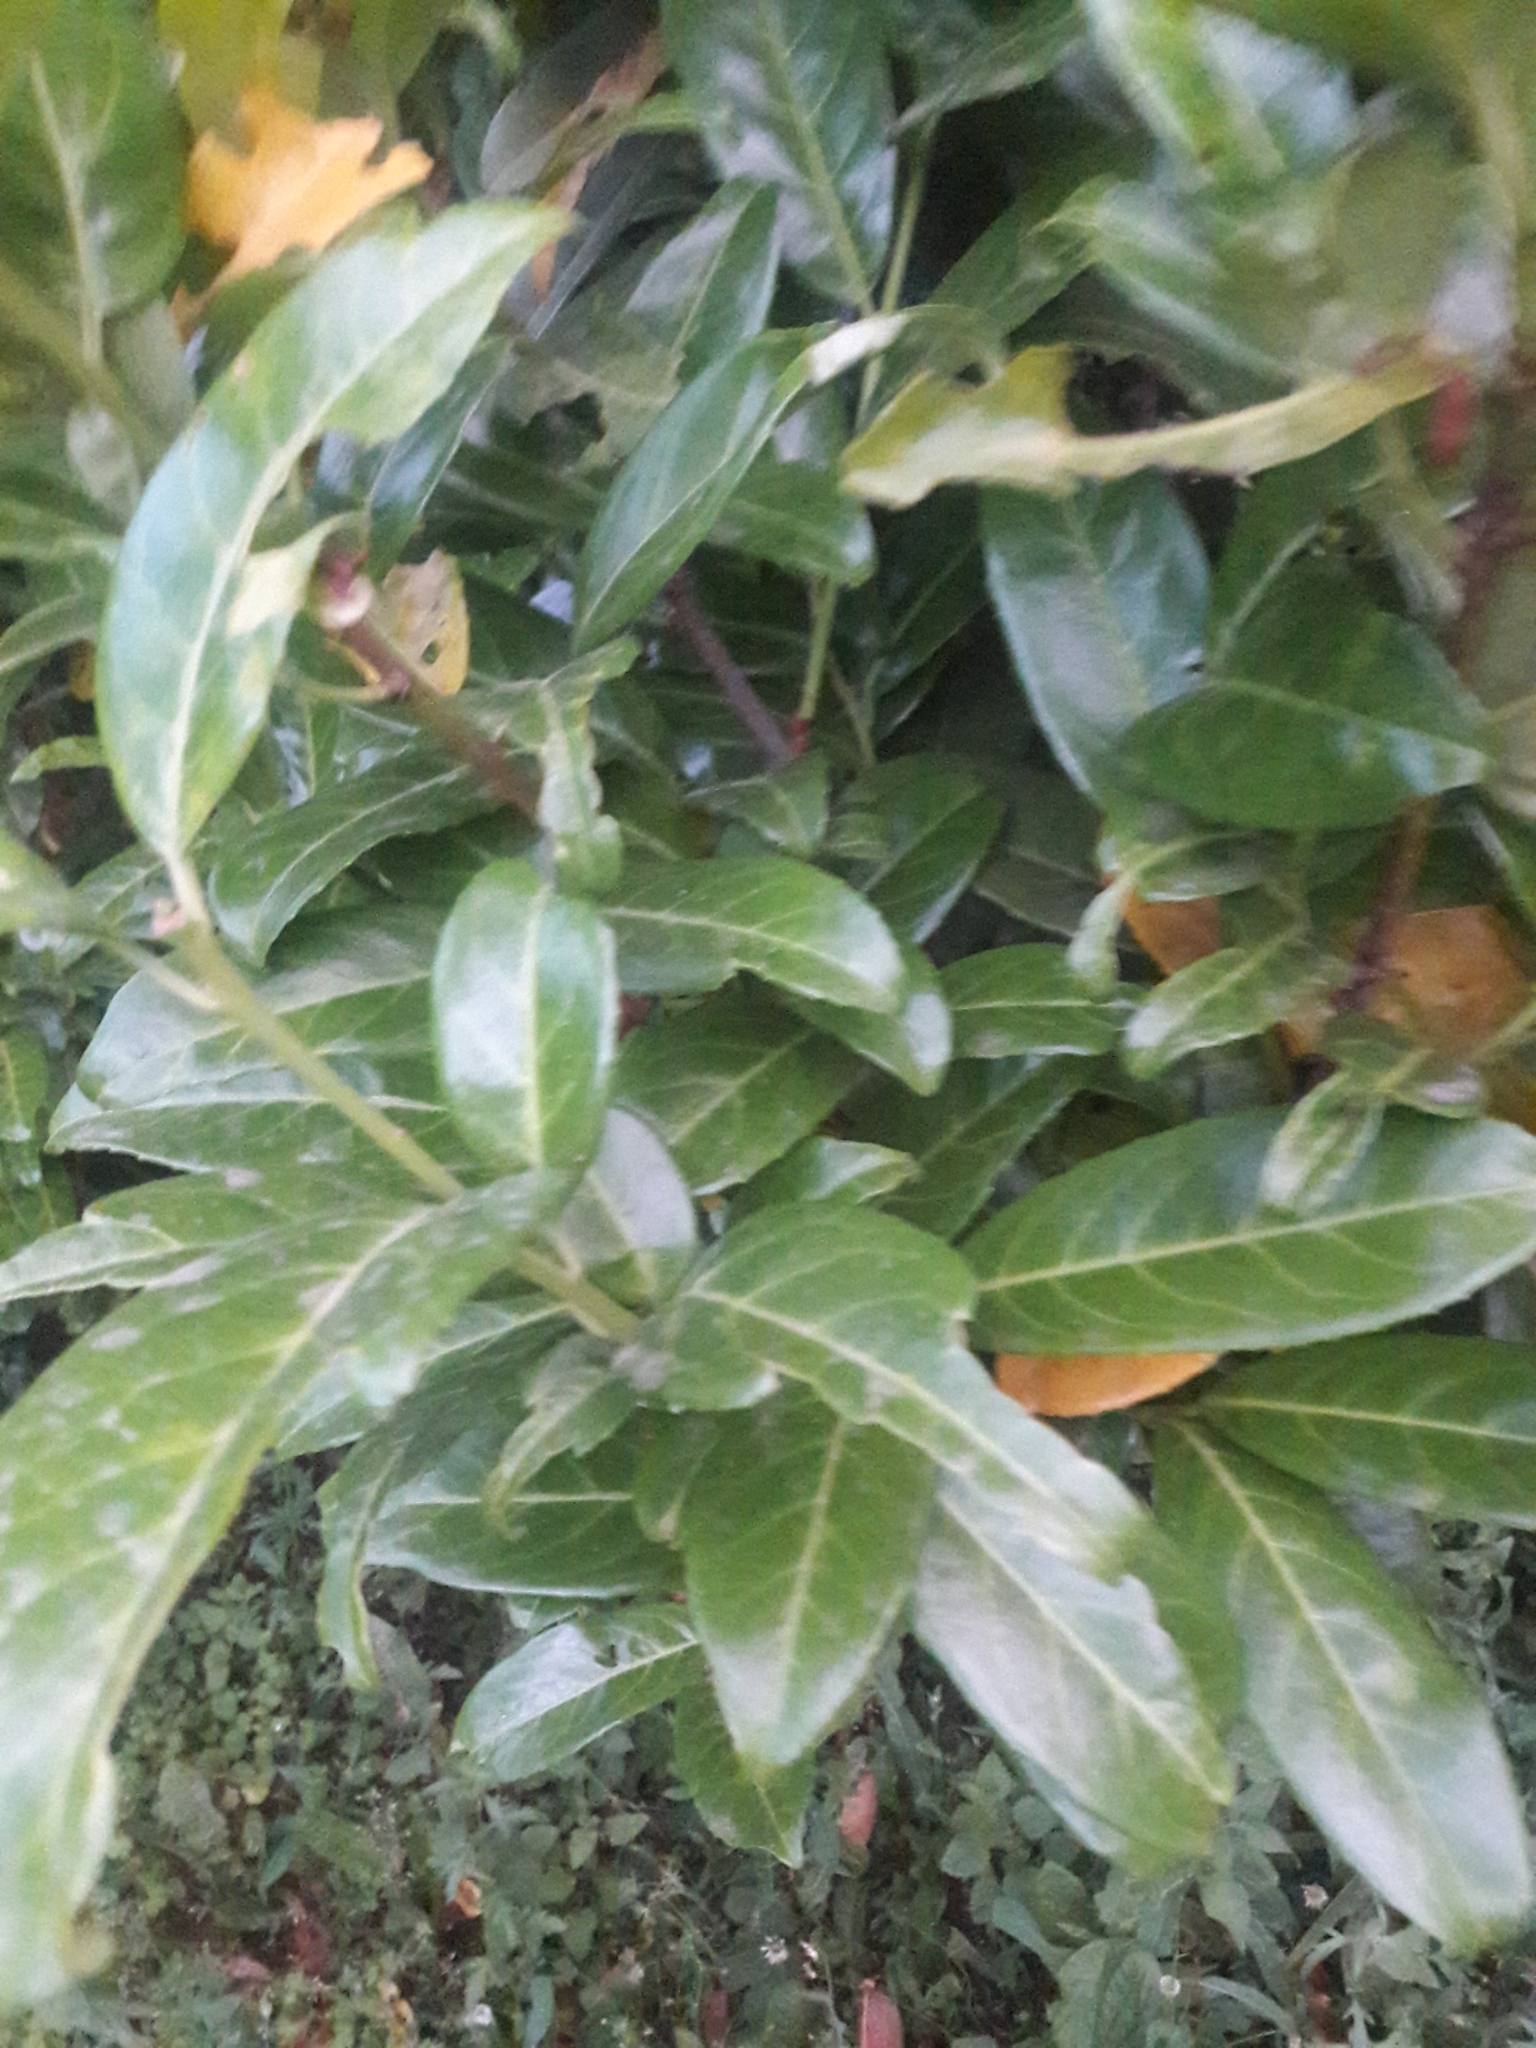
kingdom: Plantae
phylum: Tracheophyta
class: Magnoliopsida
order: Rosales
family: Rosaceae
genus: Prunus
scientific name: Prunus laurocerasus
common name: Cherry laurel
